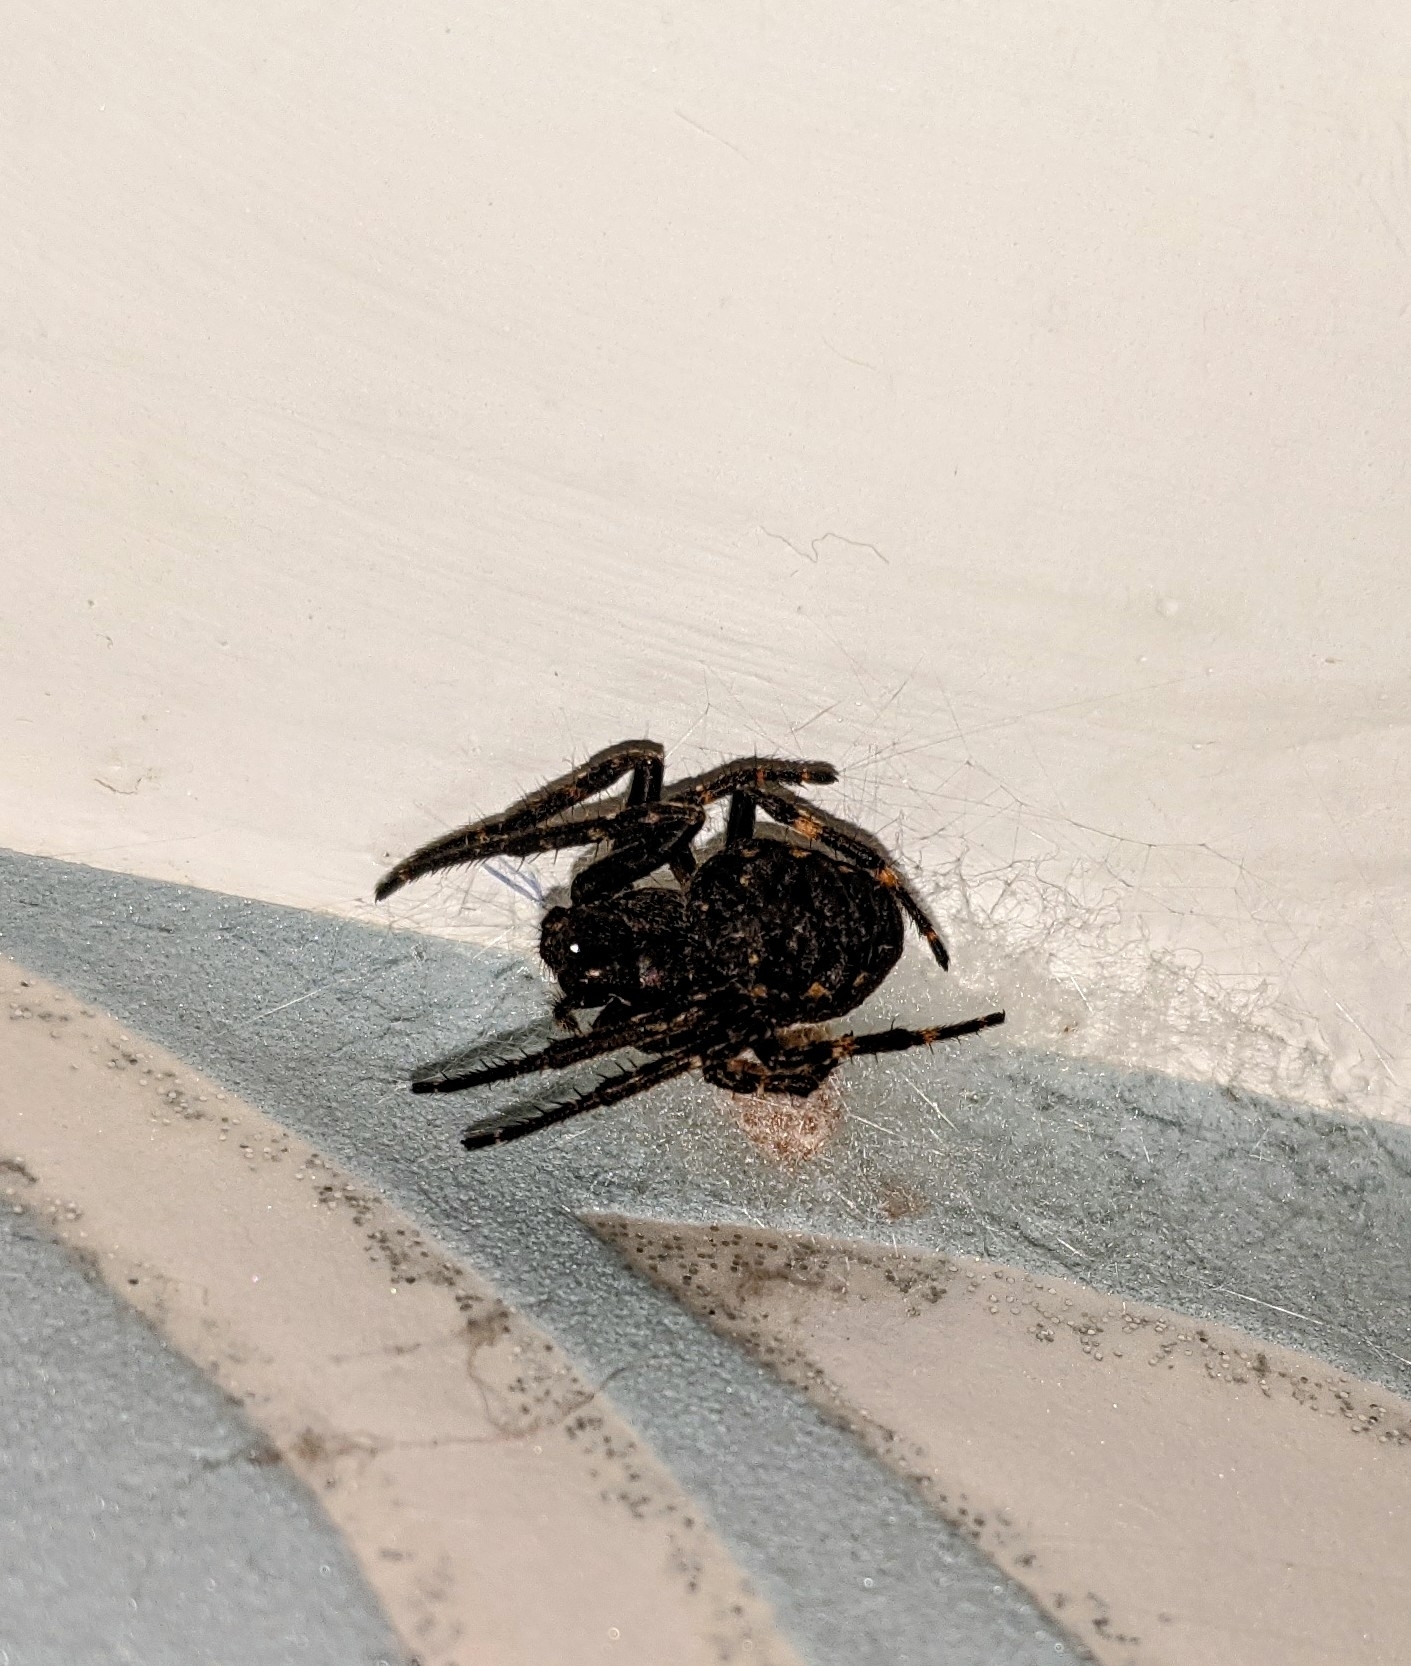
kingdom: Animalia
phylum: Arthropoda
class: Arachnida
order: Araneae
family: Araneidae
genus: Nuctenea
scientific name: Nuctenea umbratica
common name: Toad spider
